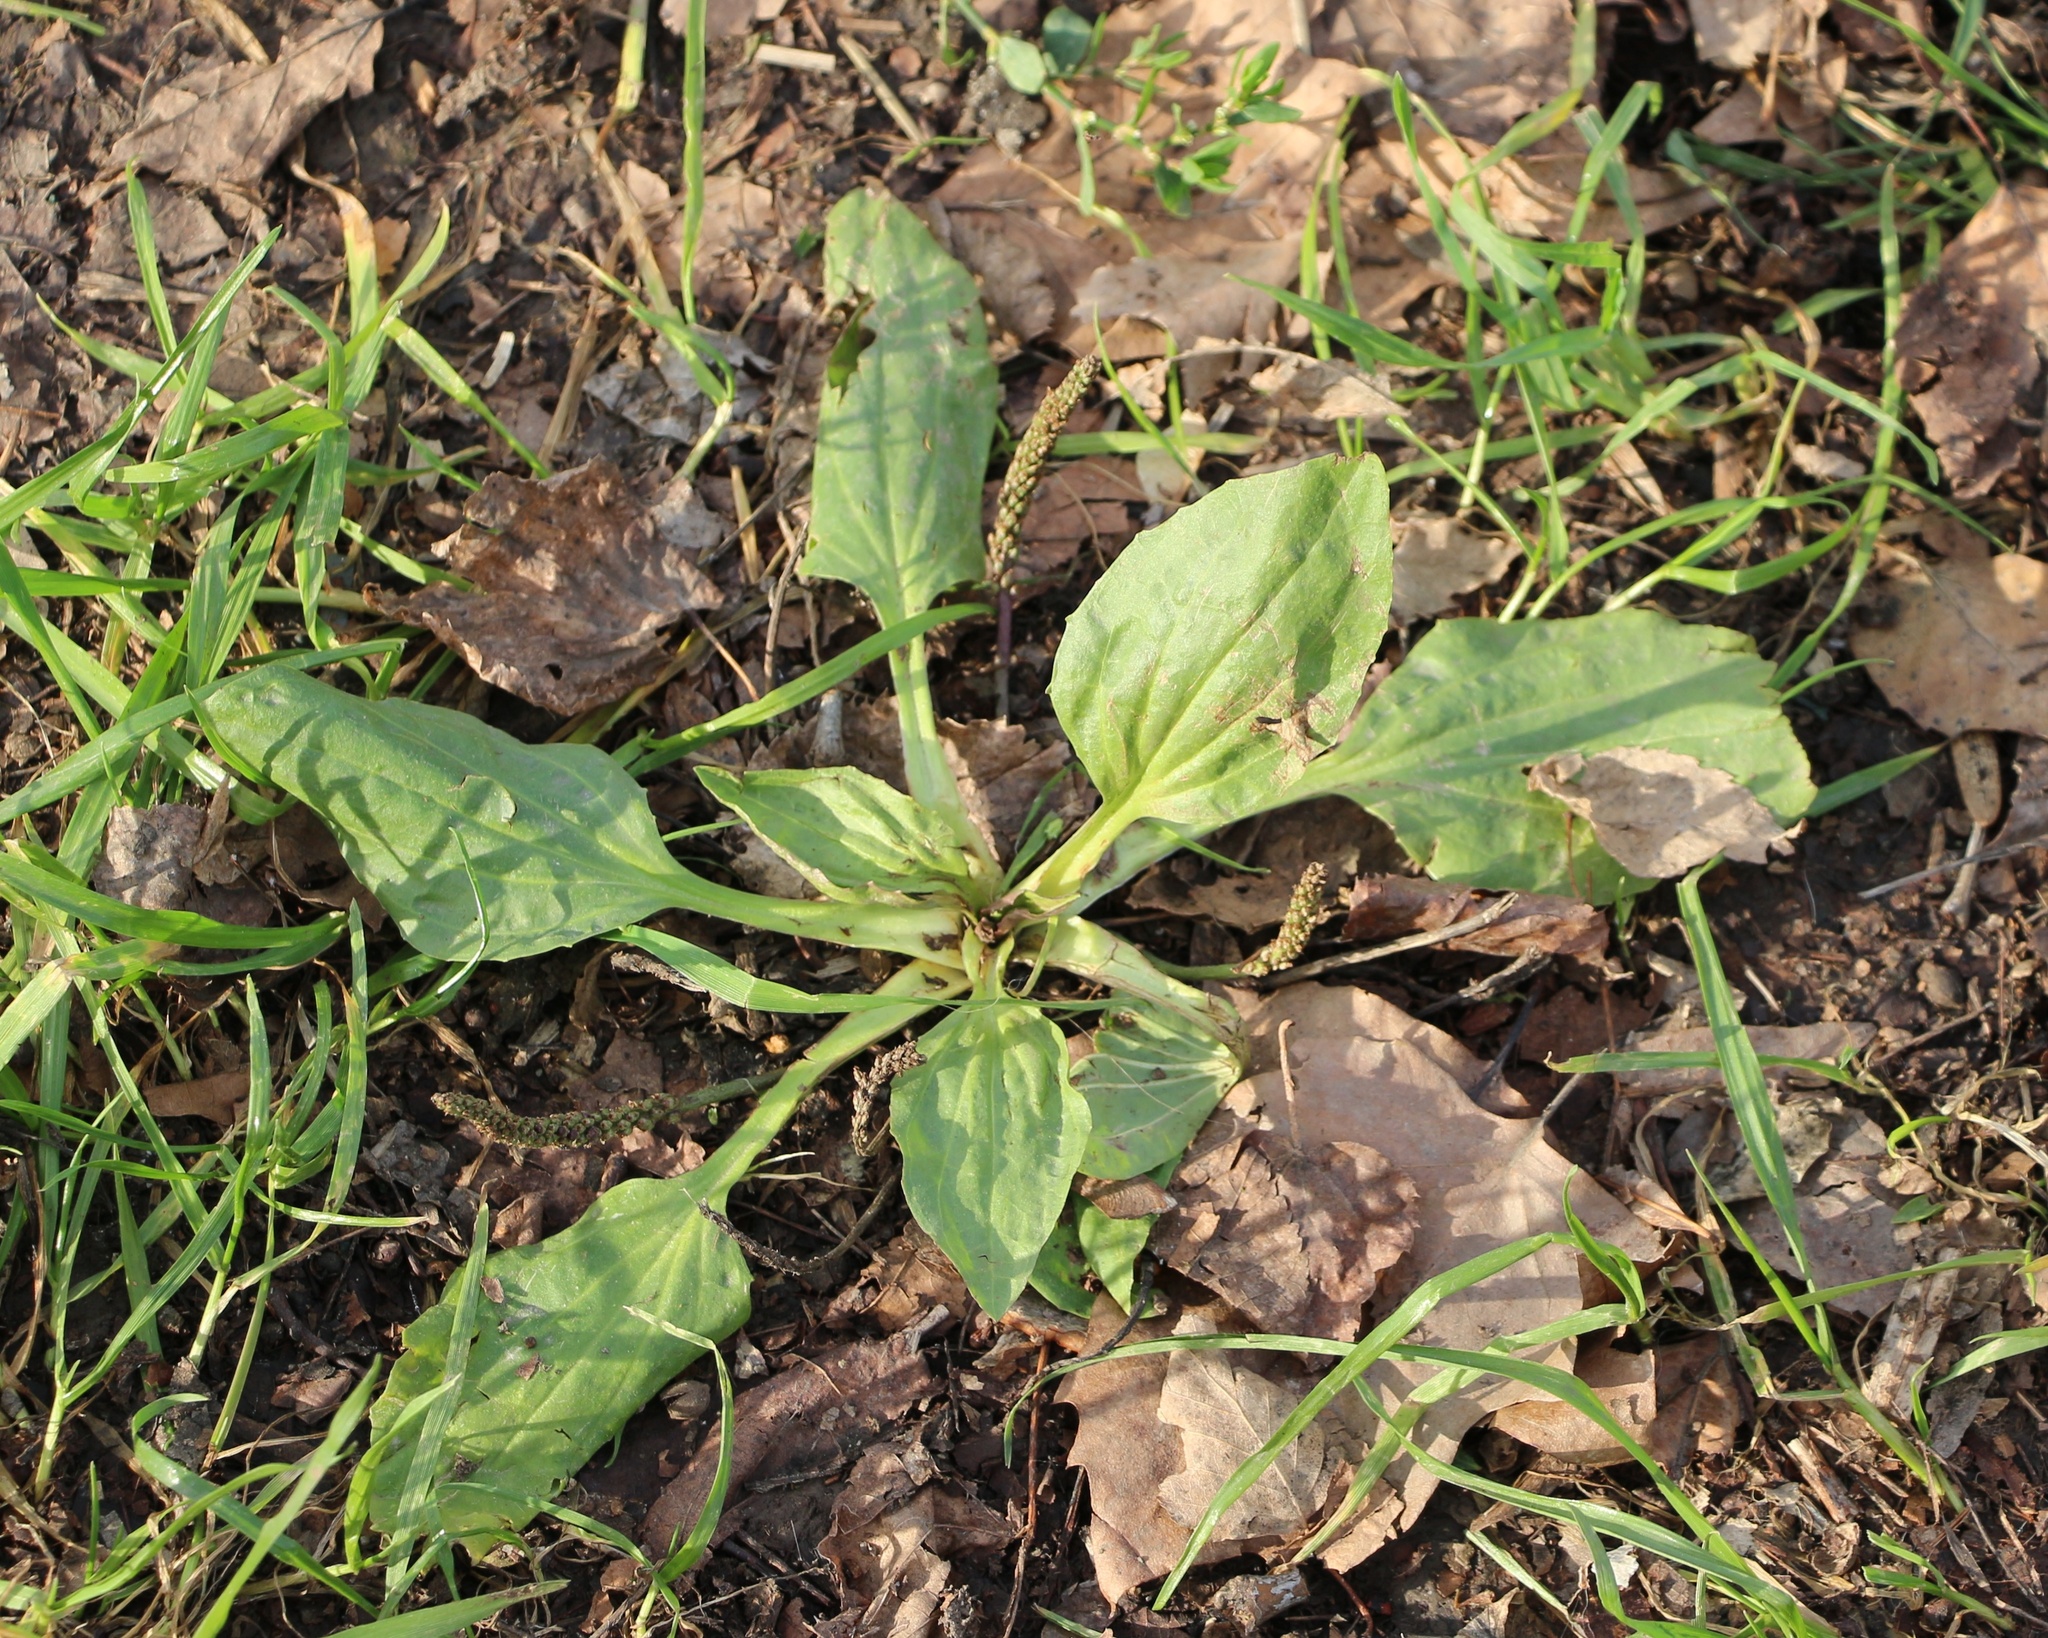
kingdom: Plantae
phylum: Tracheophyta
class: Magnoliopsida
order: Lamiales
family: Plantaginaceae
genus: Plantago
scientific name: Plantago major
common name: Common plantain
